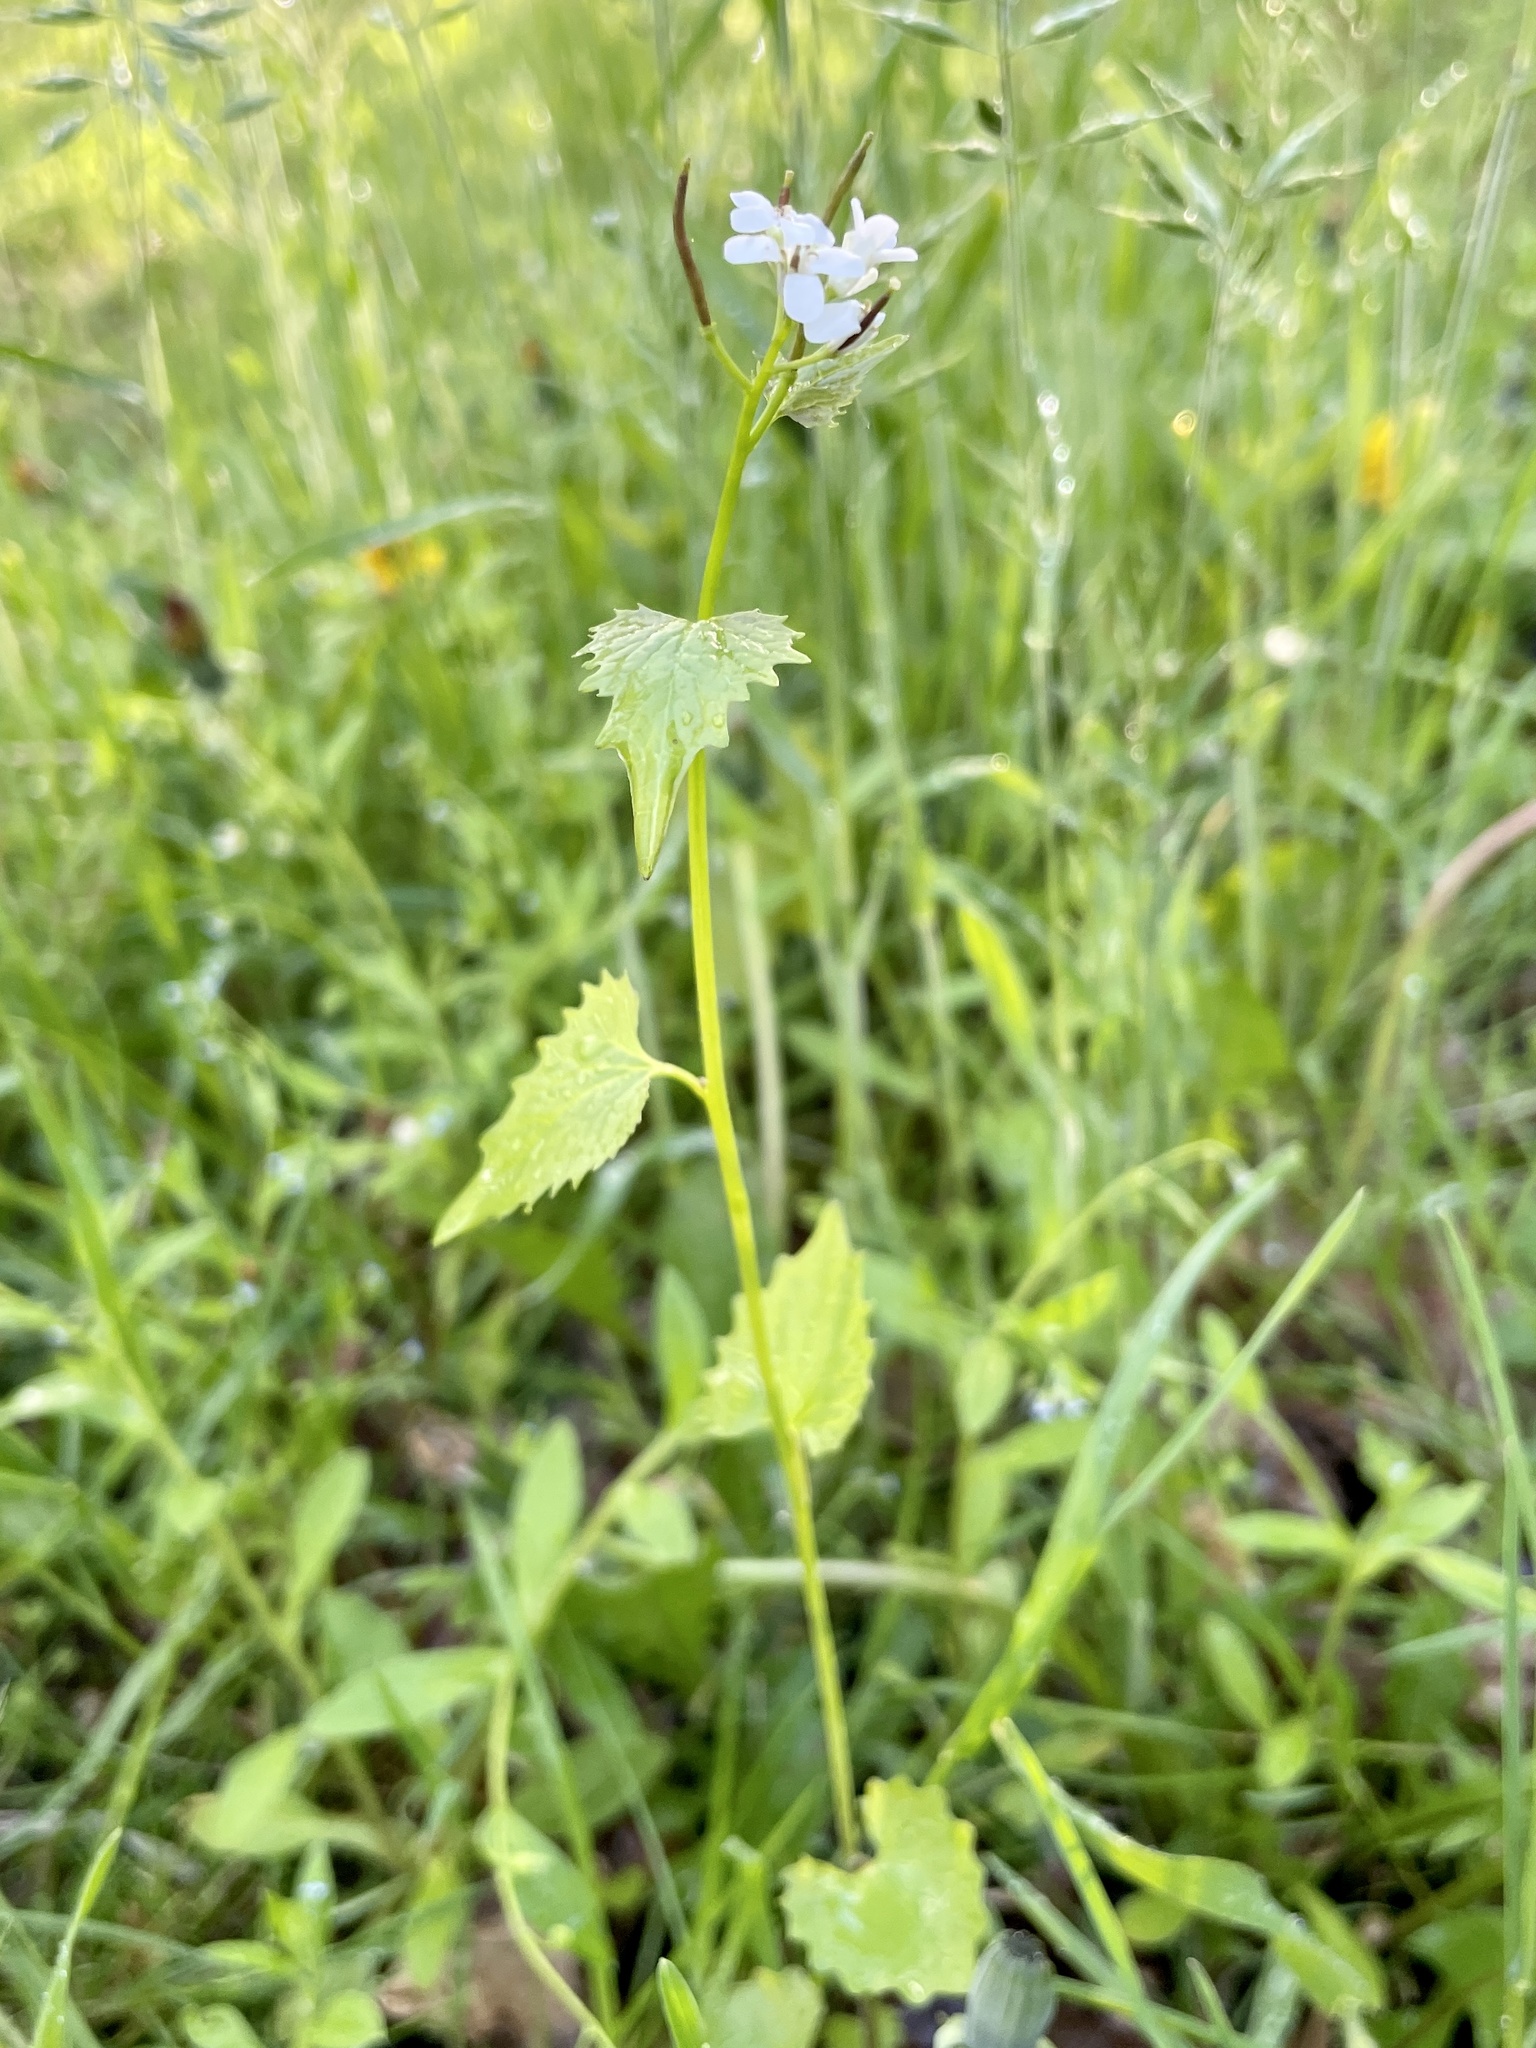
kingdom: Plantae
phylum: Tracheophyta
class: Magnoliopsida
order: Brassicales
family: Brassicaceae
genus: Alliaria
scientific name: Alliaria petiolata
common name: Garlic mustard
